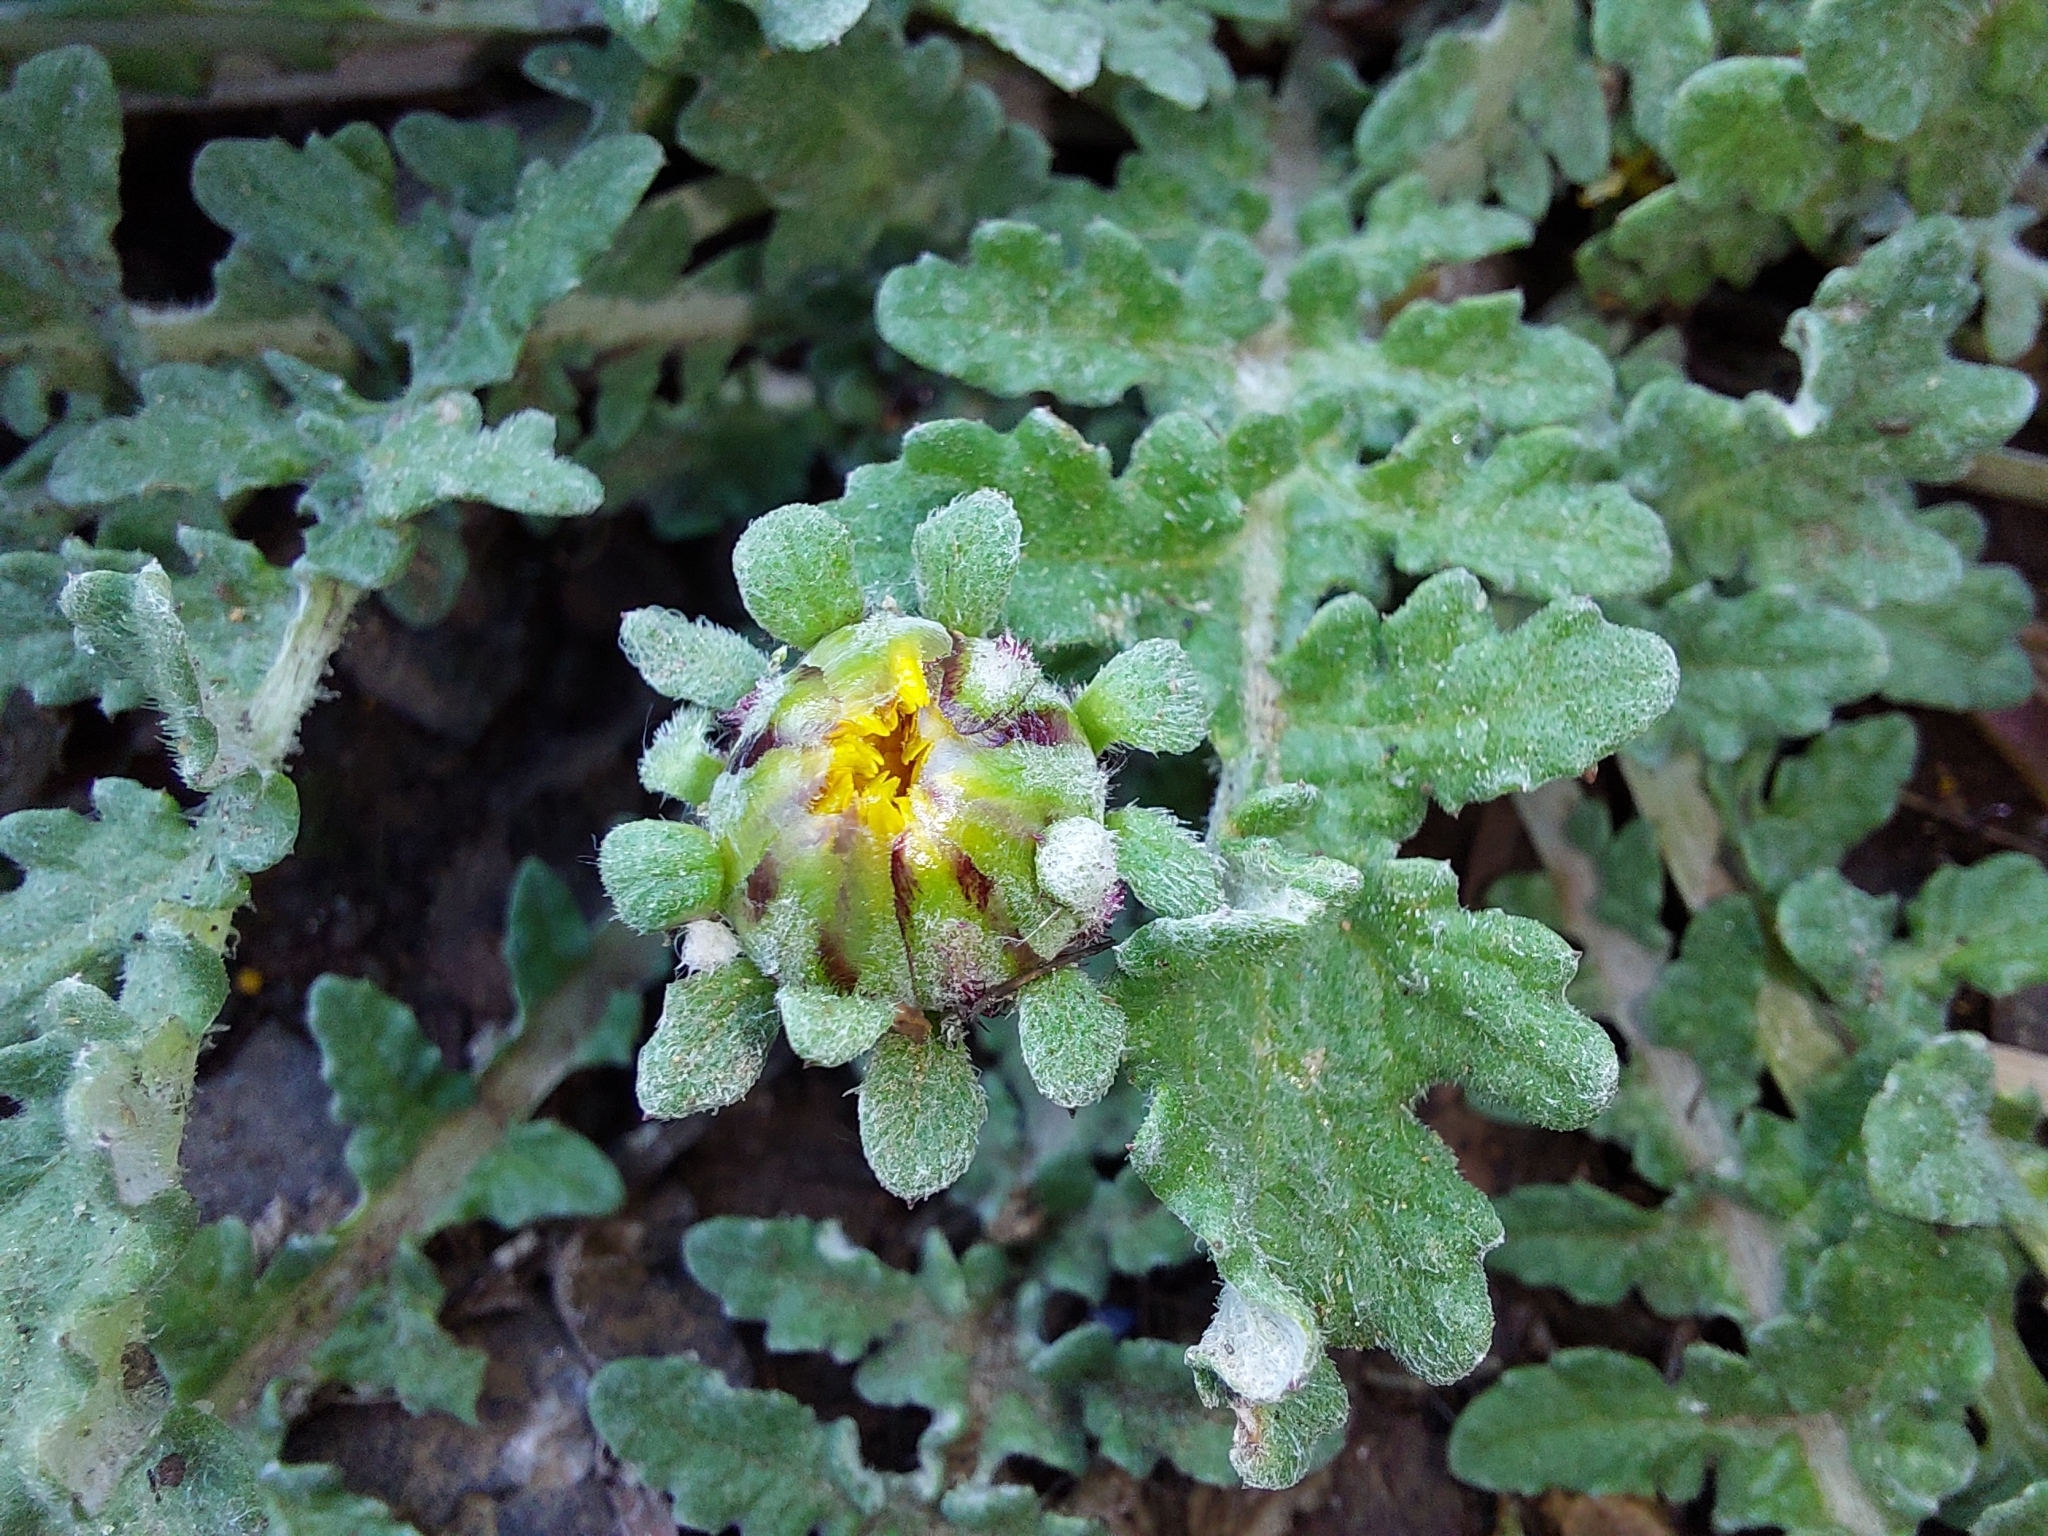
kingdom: Plantae
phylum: Tracheophyta
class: Magnoliopsida
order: Asterales
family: Asteraceae
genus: Arctotis
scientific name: Arctotis arctotoides
